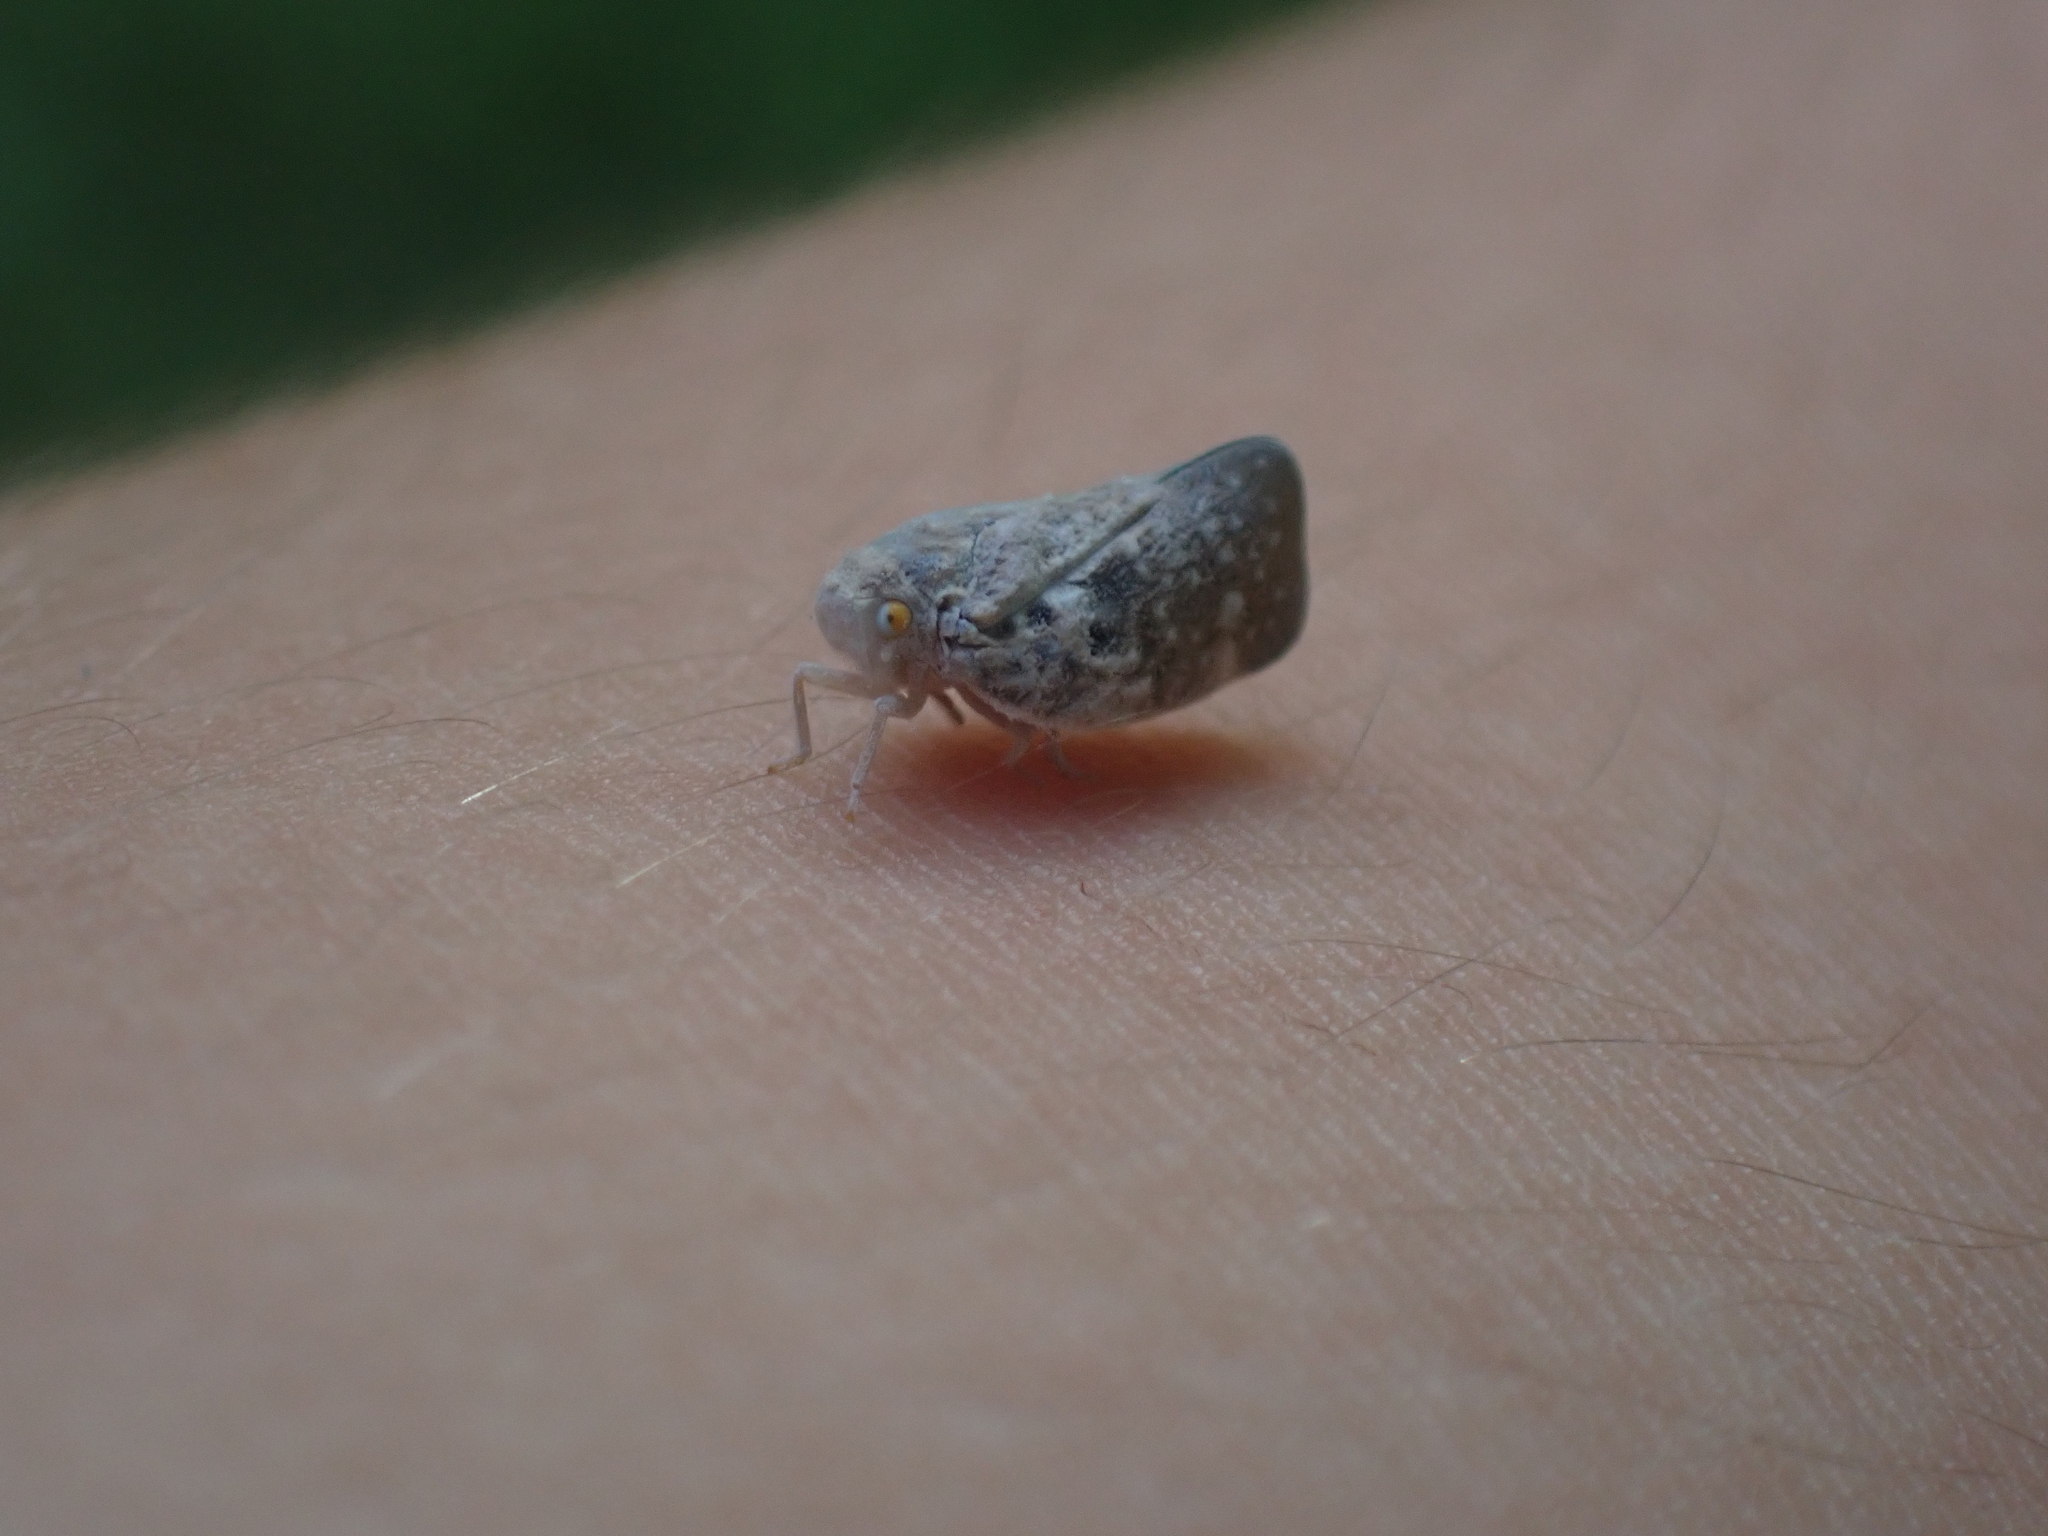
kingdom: Animalia
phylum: Arthropoda
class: Insecta
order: Hemiptera
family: Flatidae
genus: Metcalfa
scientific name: Metcalfa pruinosa
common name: Citrus flatid planthopper
